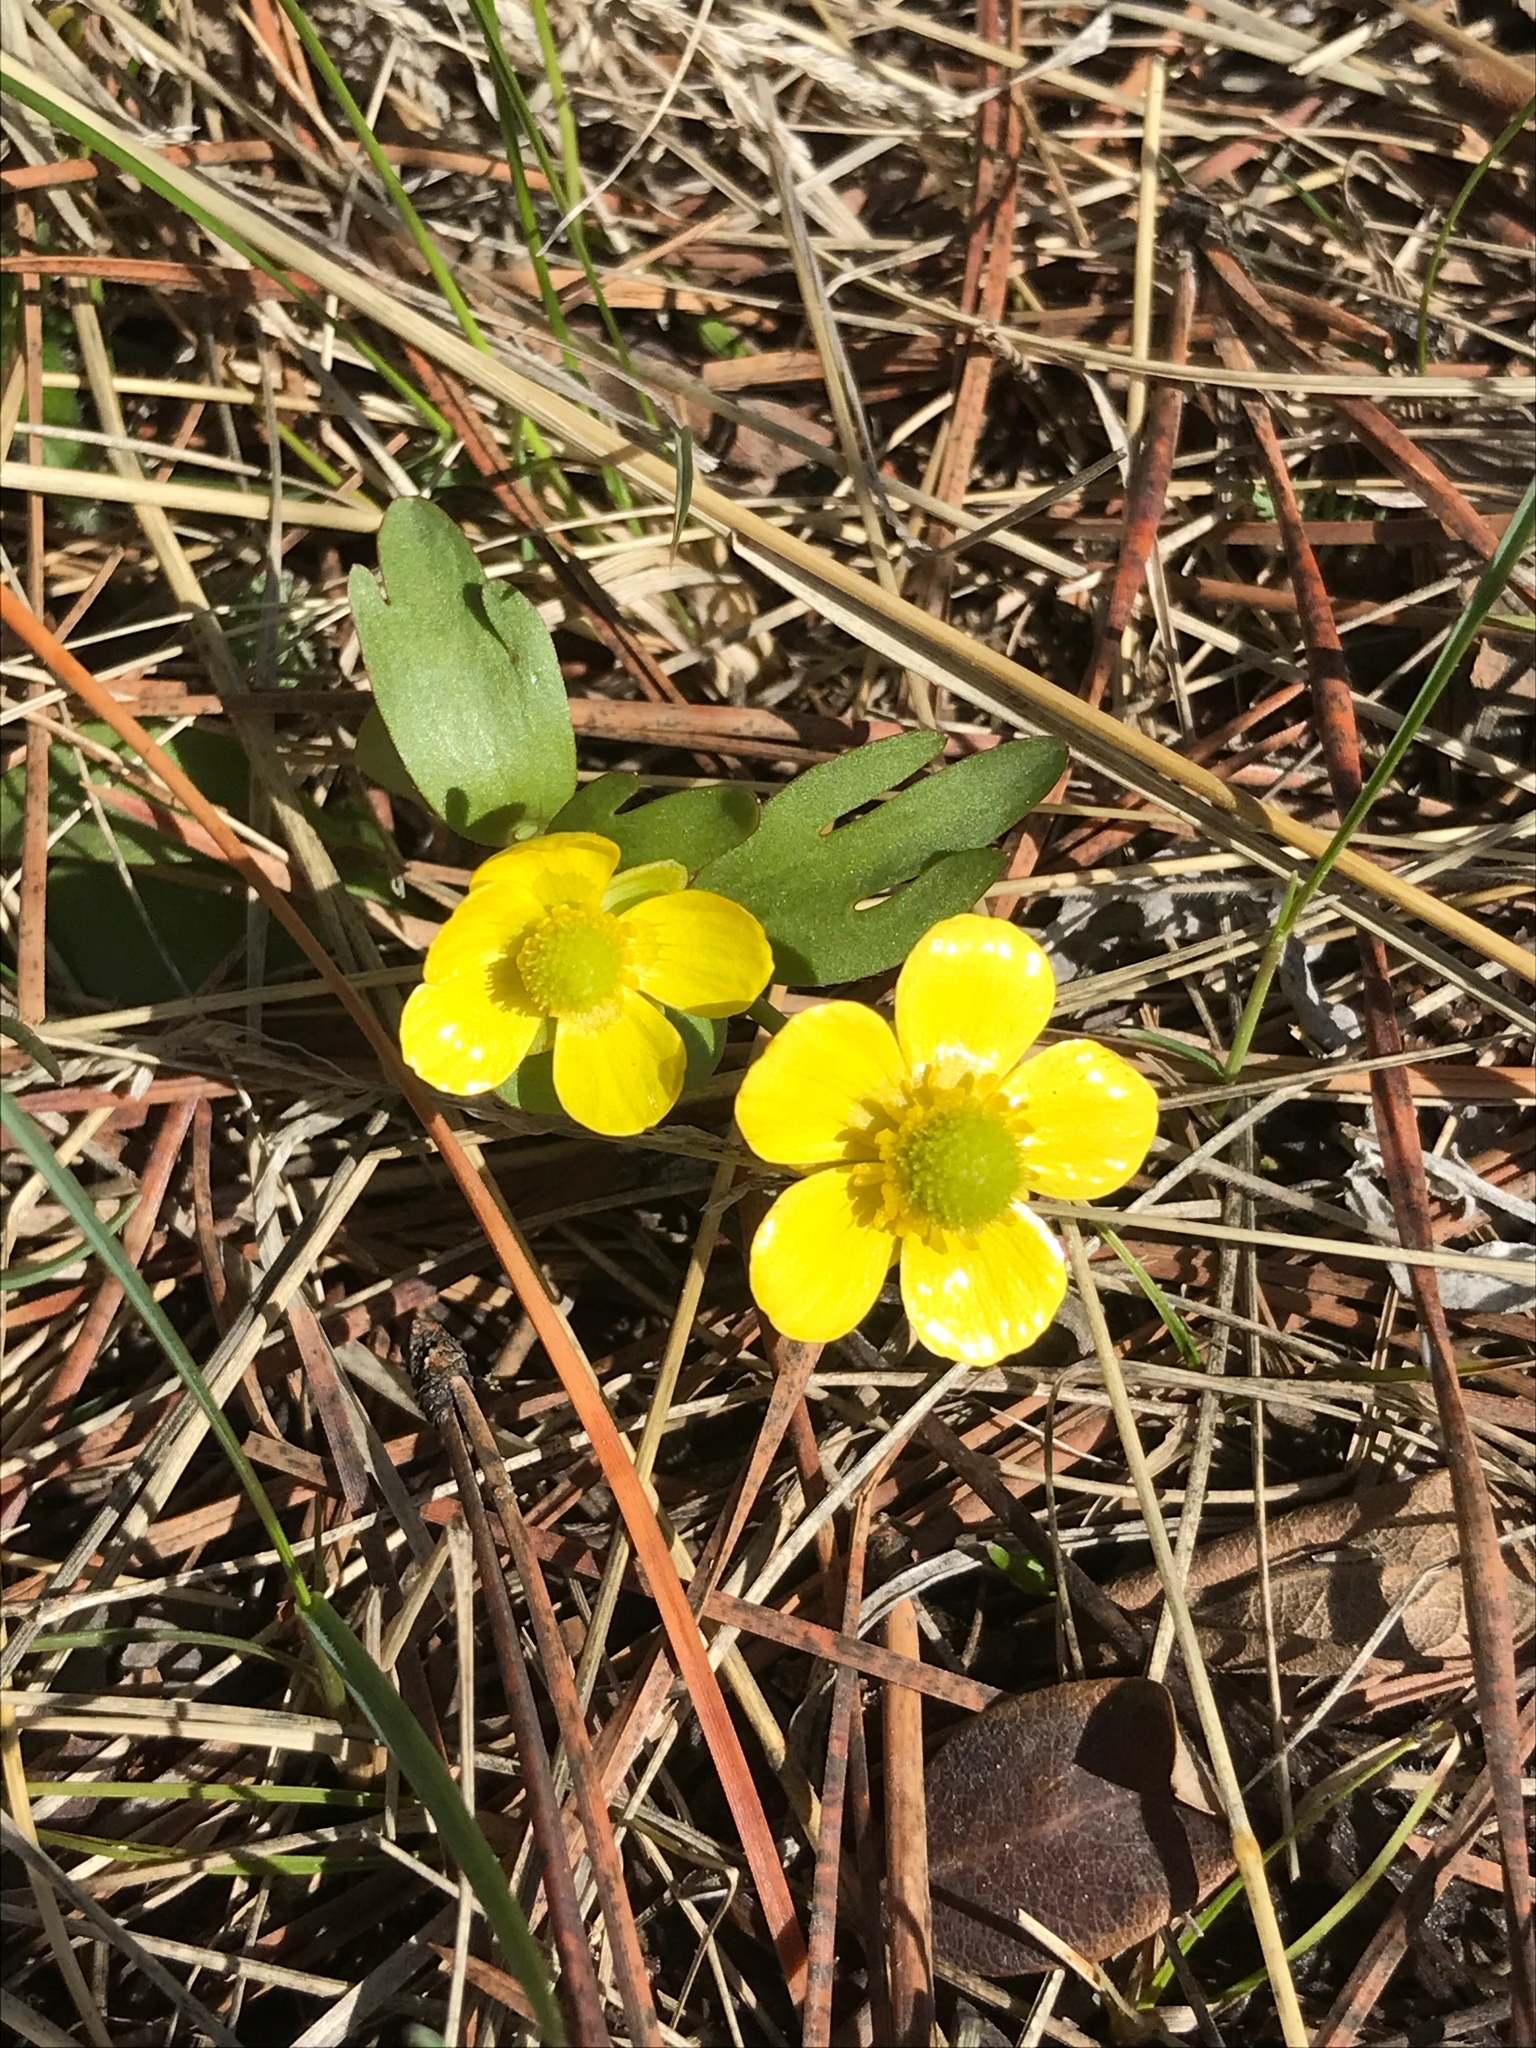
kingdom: Plantae
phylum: Tracheophyta
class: Magnoliopsida
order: Ranunculales
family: Ranunculaceae
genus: Ranunculus
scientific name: Ranunculus glaberrimus
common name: Sagebrush buttercup
